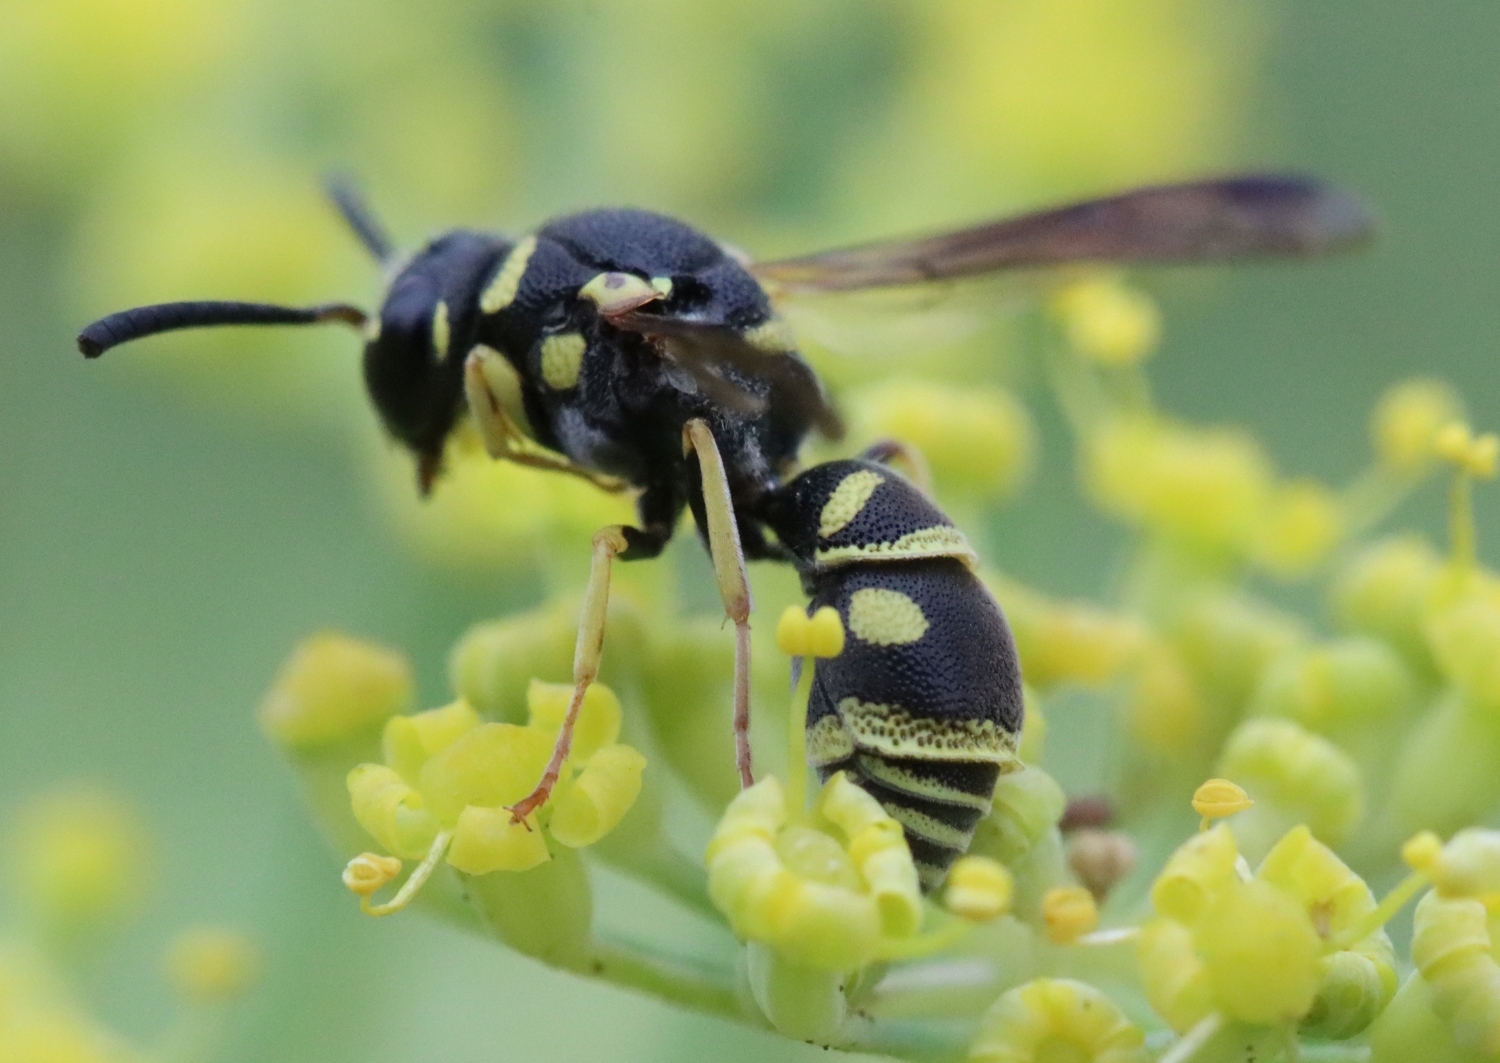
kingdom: Animalia
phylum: Arthropoda
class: Insecta
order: Hymenoptera
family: Eumenidae
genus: Parancistrocerus
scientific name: Parancistrocerus leionotus
